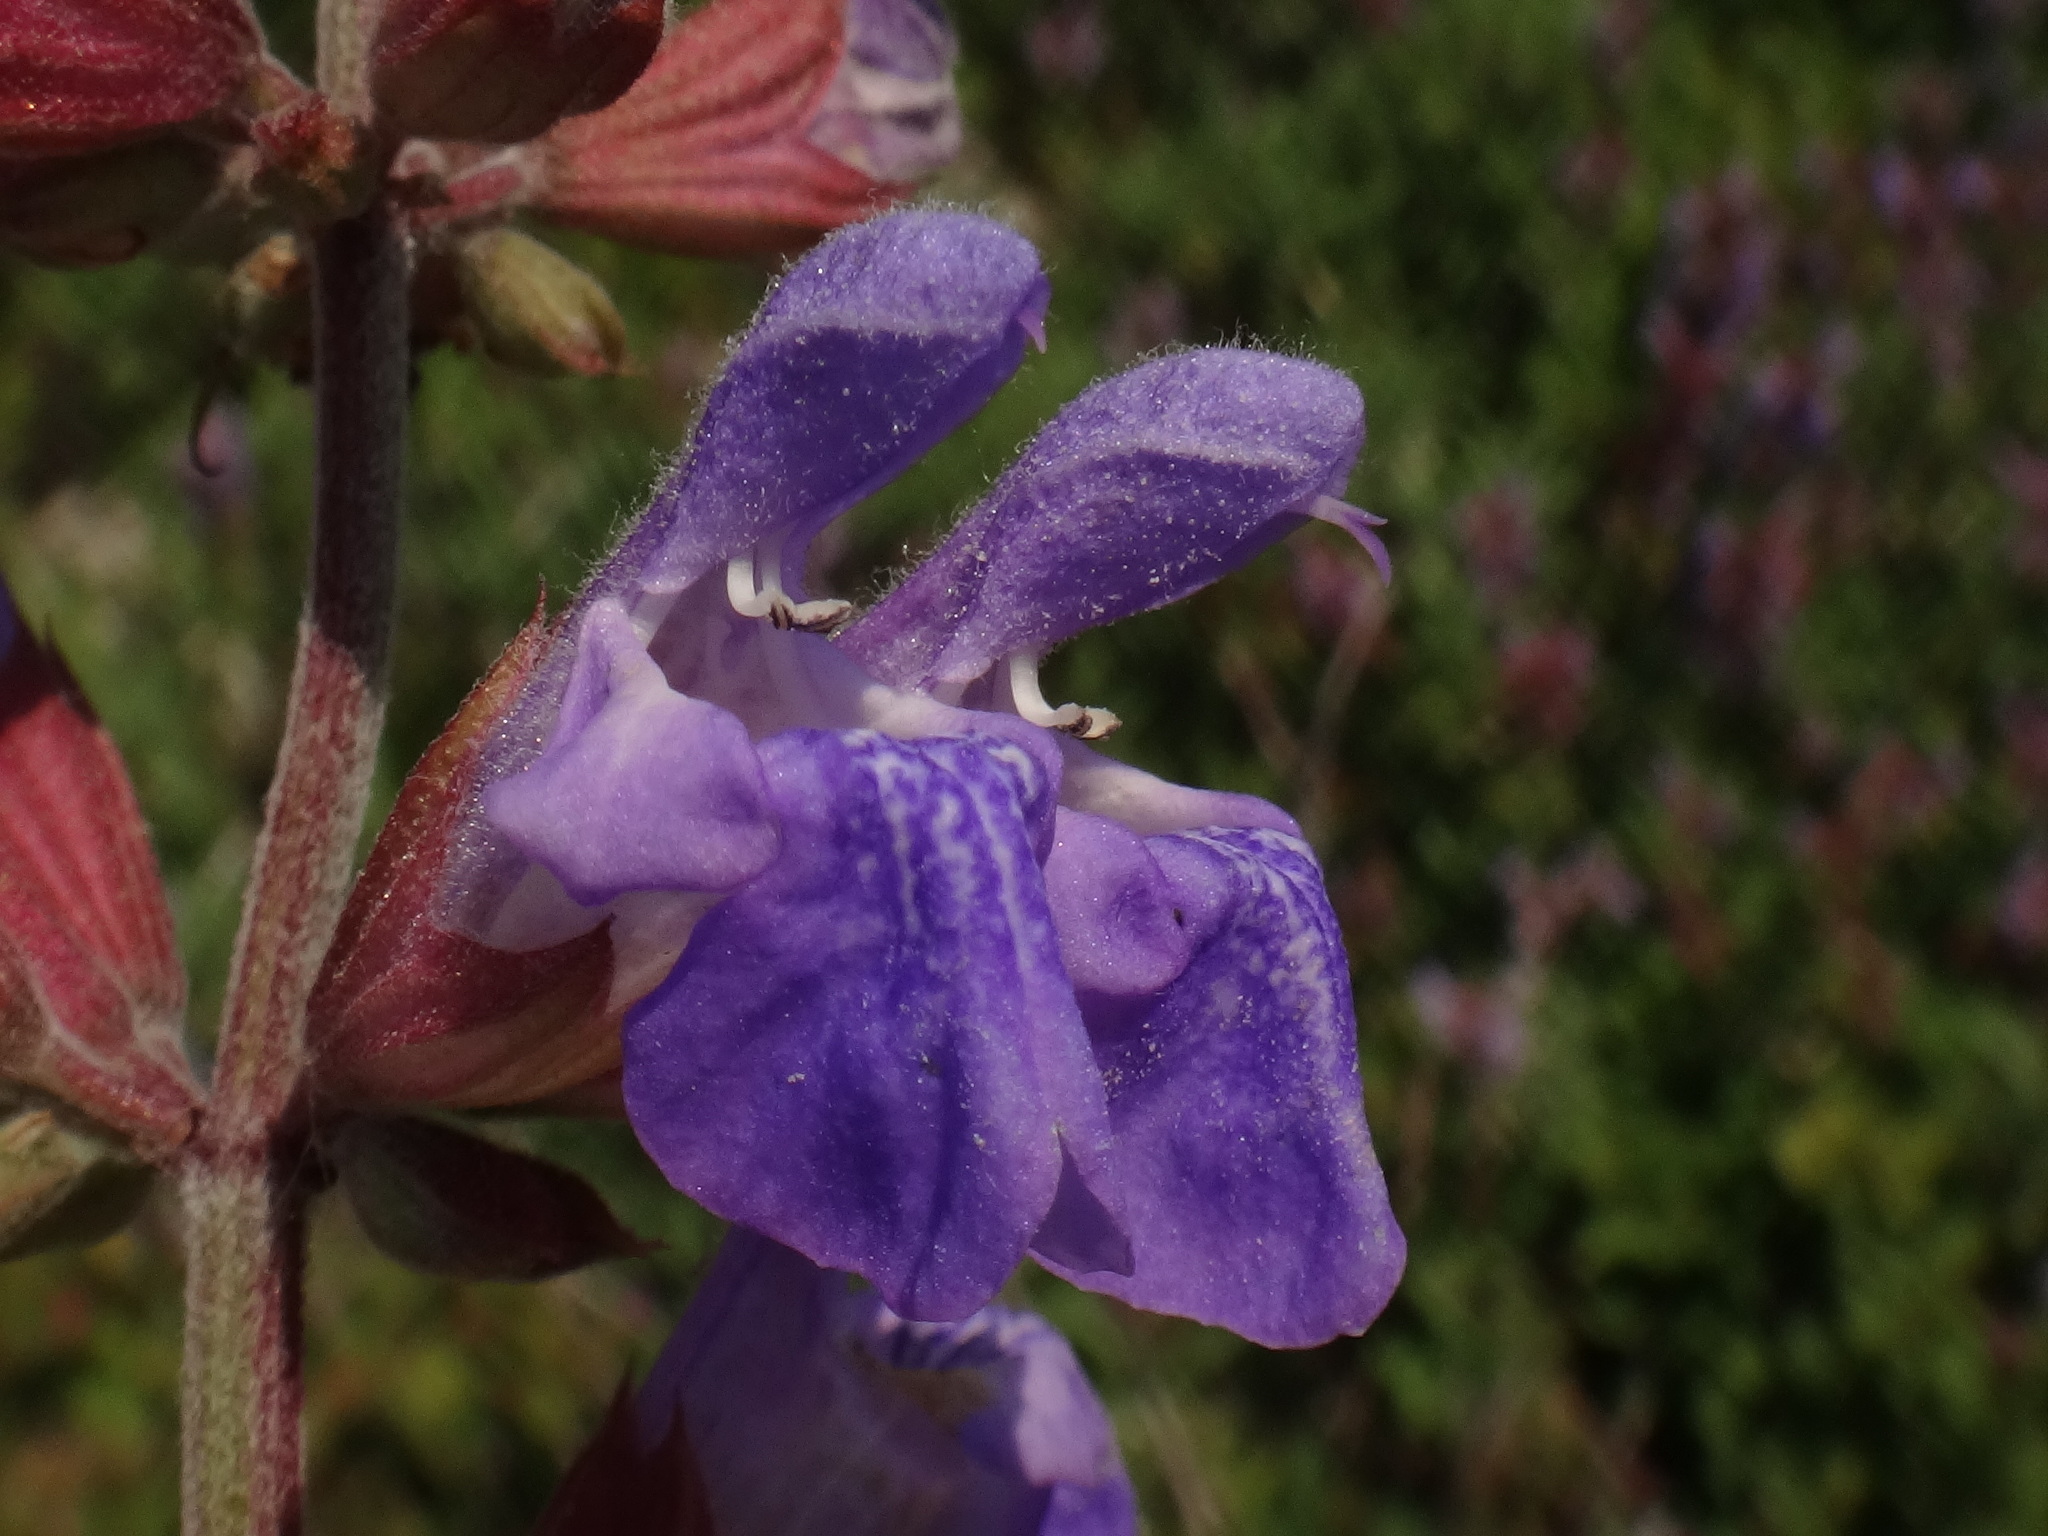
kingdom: Plantae
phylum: Tracheophyta
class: Magnoliopsida
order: Lamiales
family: Lamiaceae
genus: Salvia
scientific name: Salvia officinalis
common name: Sage
